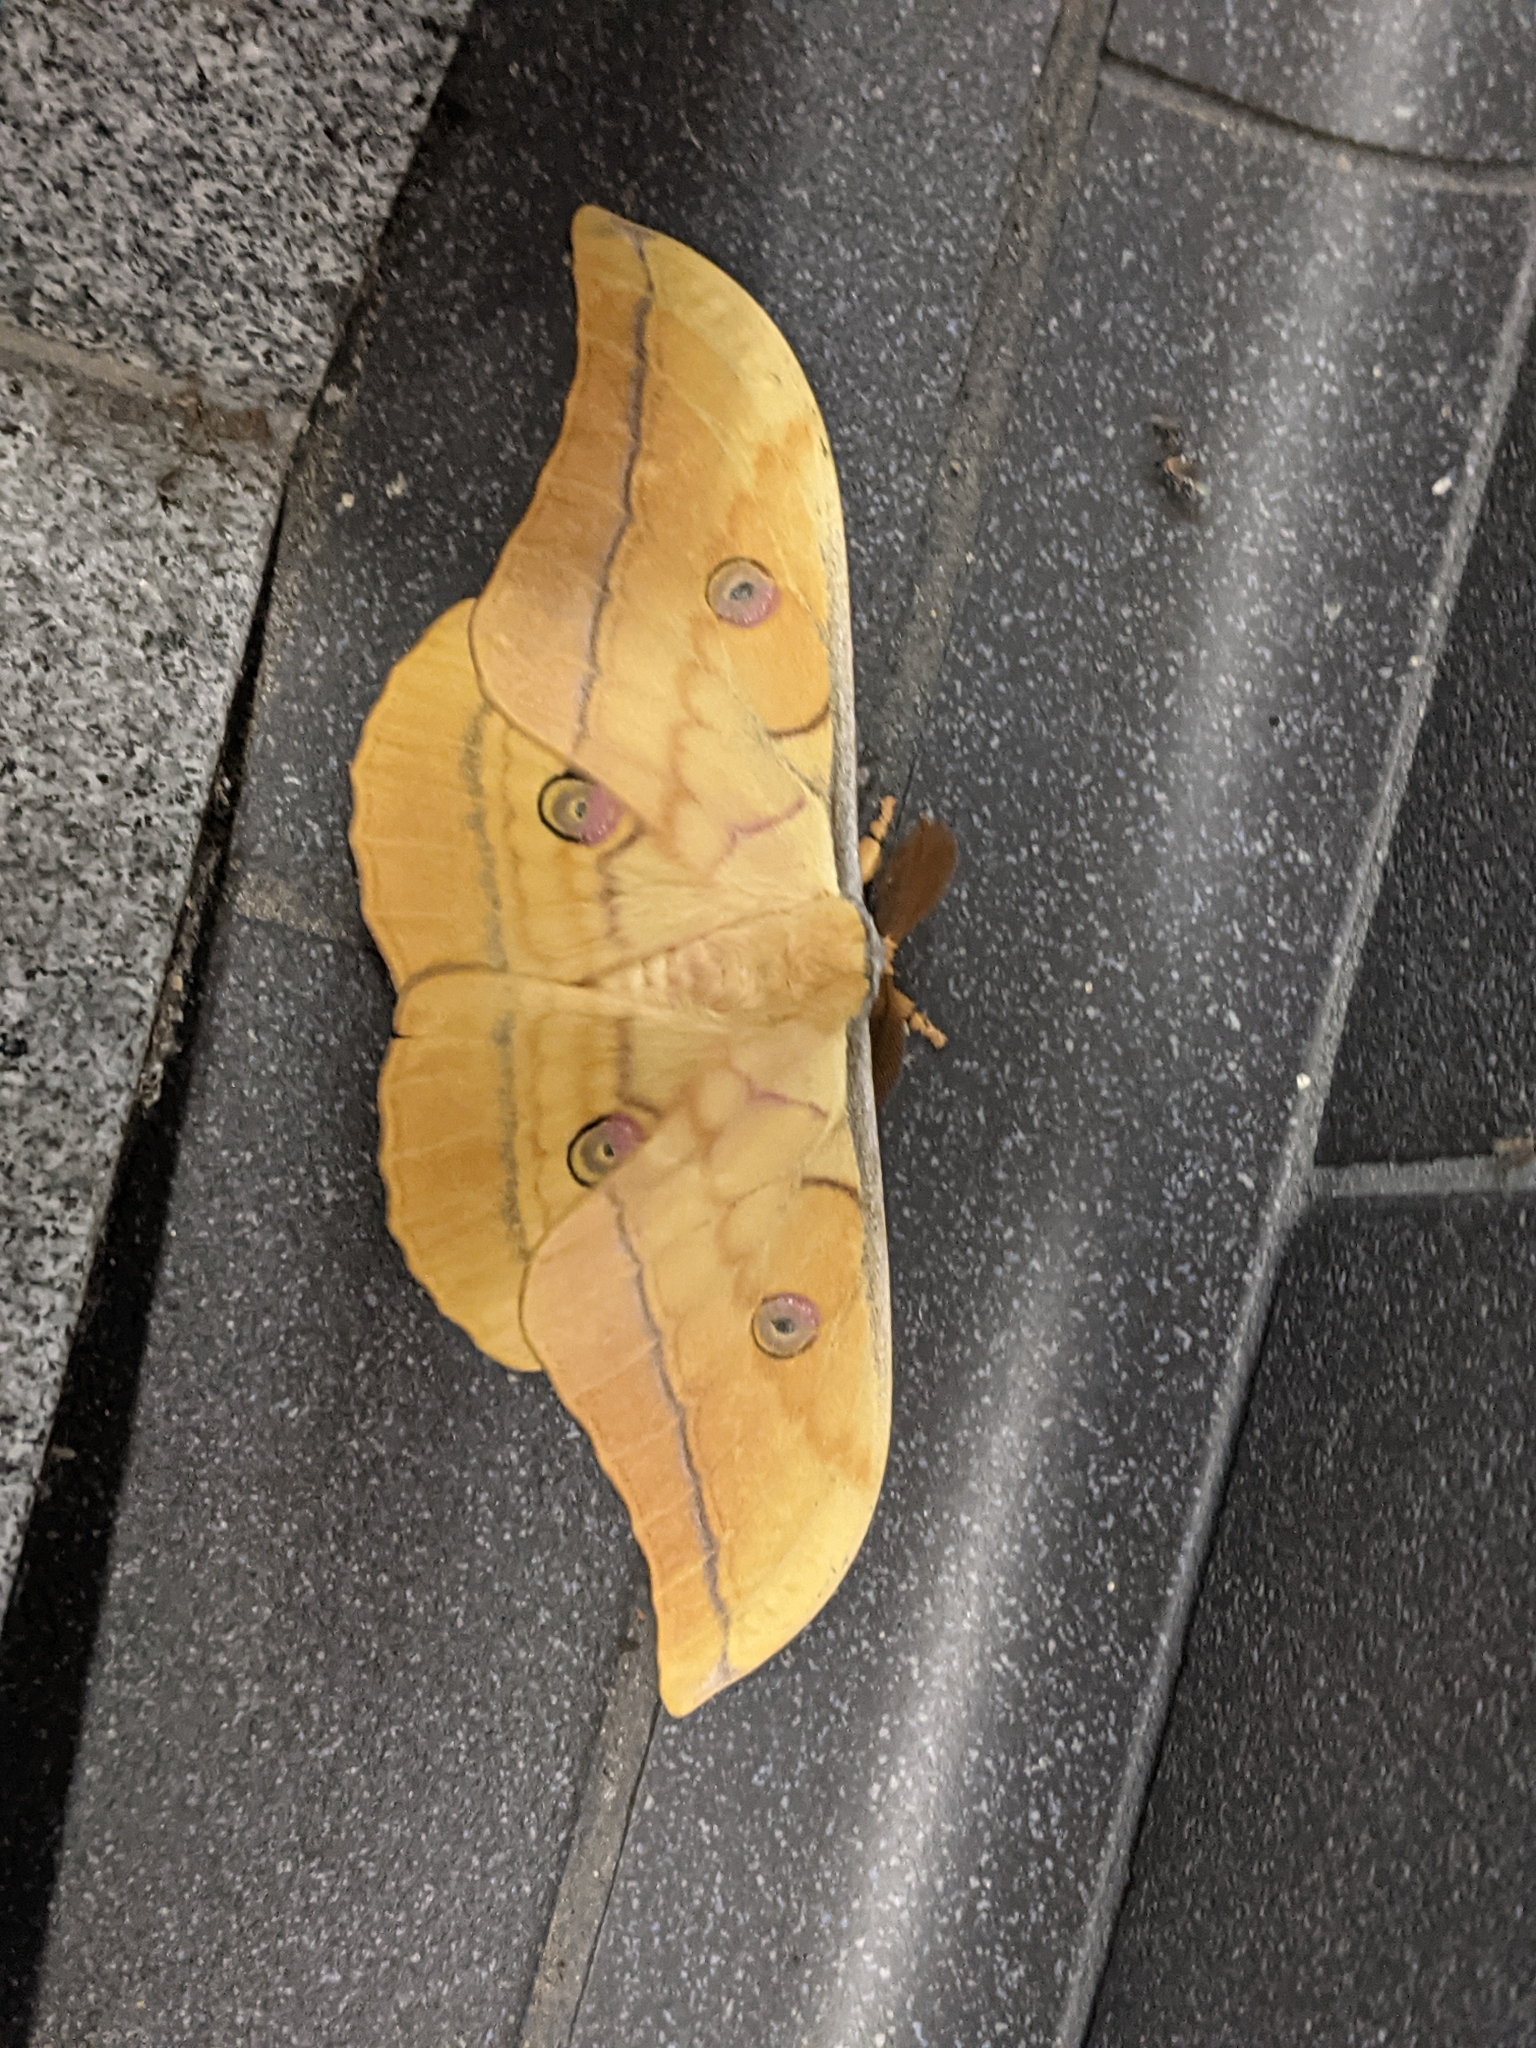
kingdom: Animalia
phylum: Arthropoda
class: Insecta
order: Lepidoptera
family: Saturniidae
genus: Antheraea
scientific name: Antheraea yamamai
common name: Japanese oak silk moth
